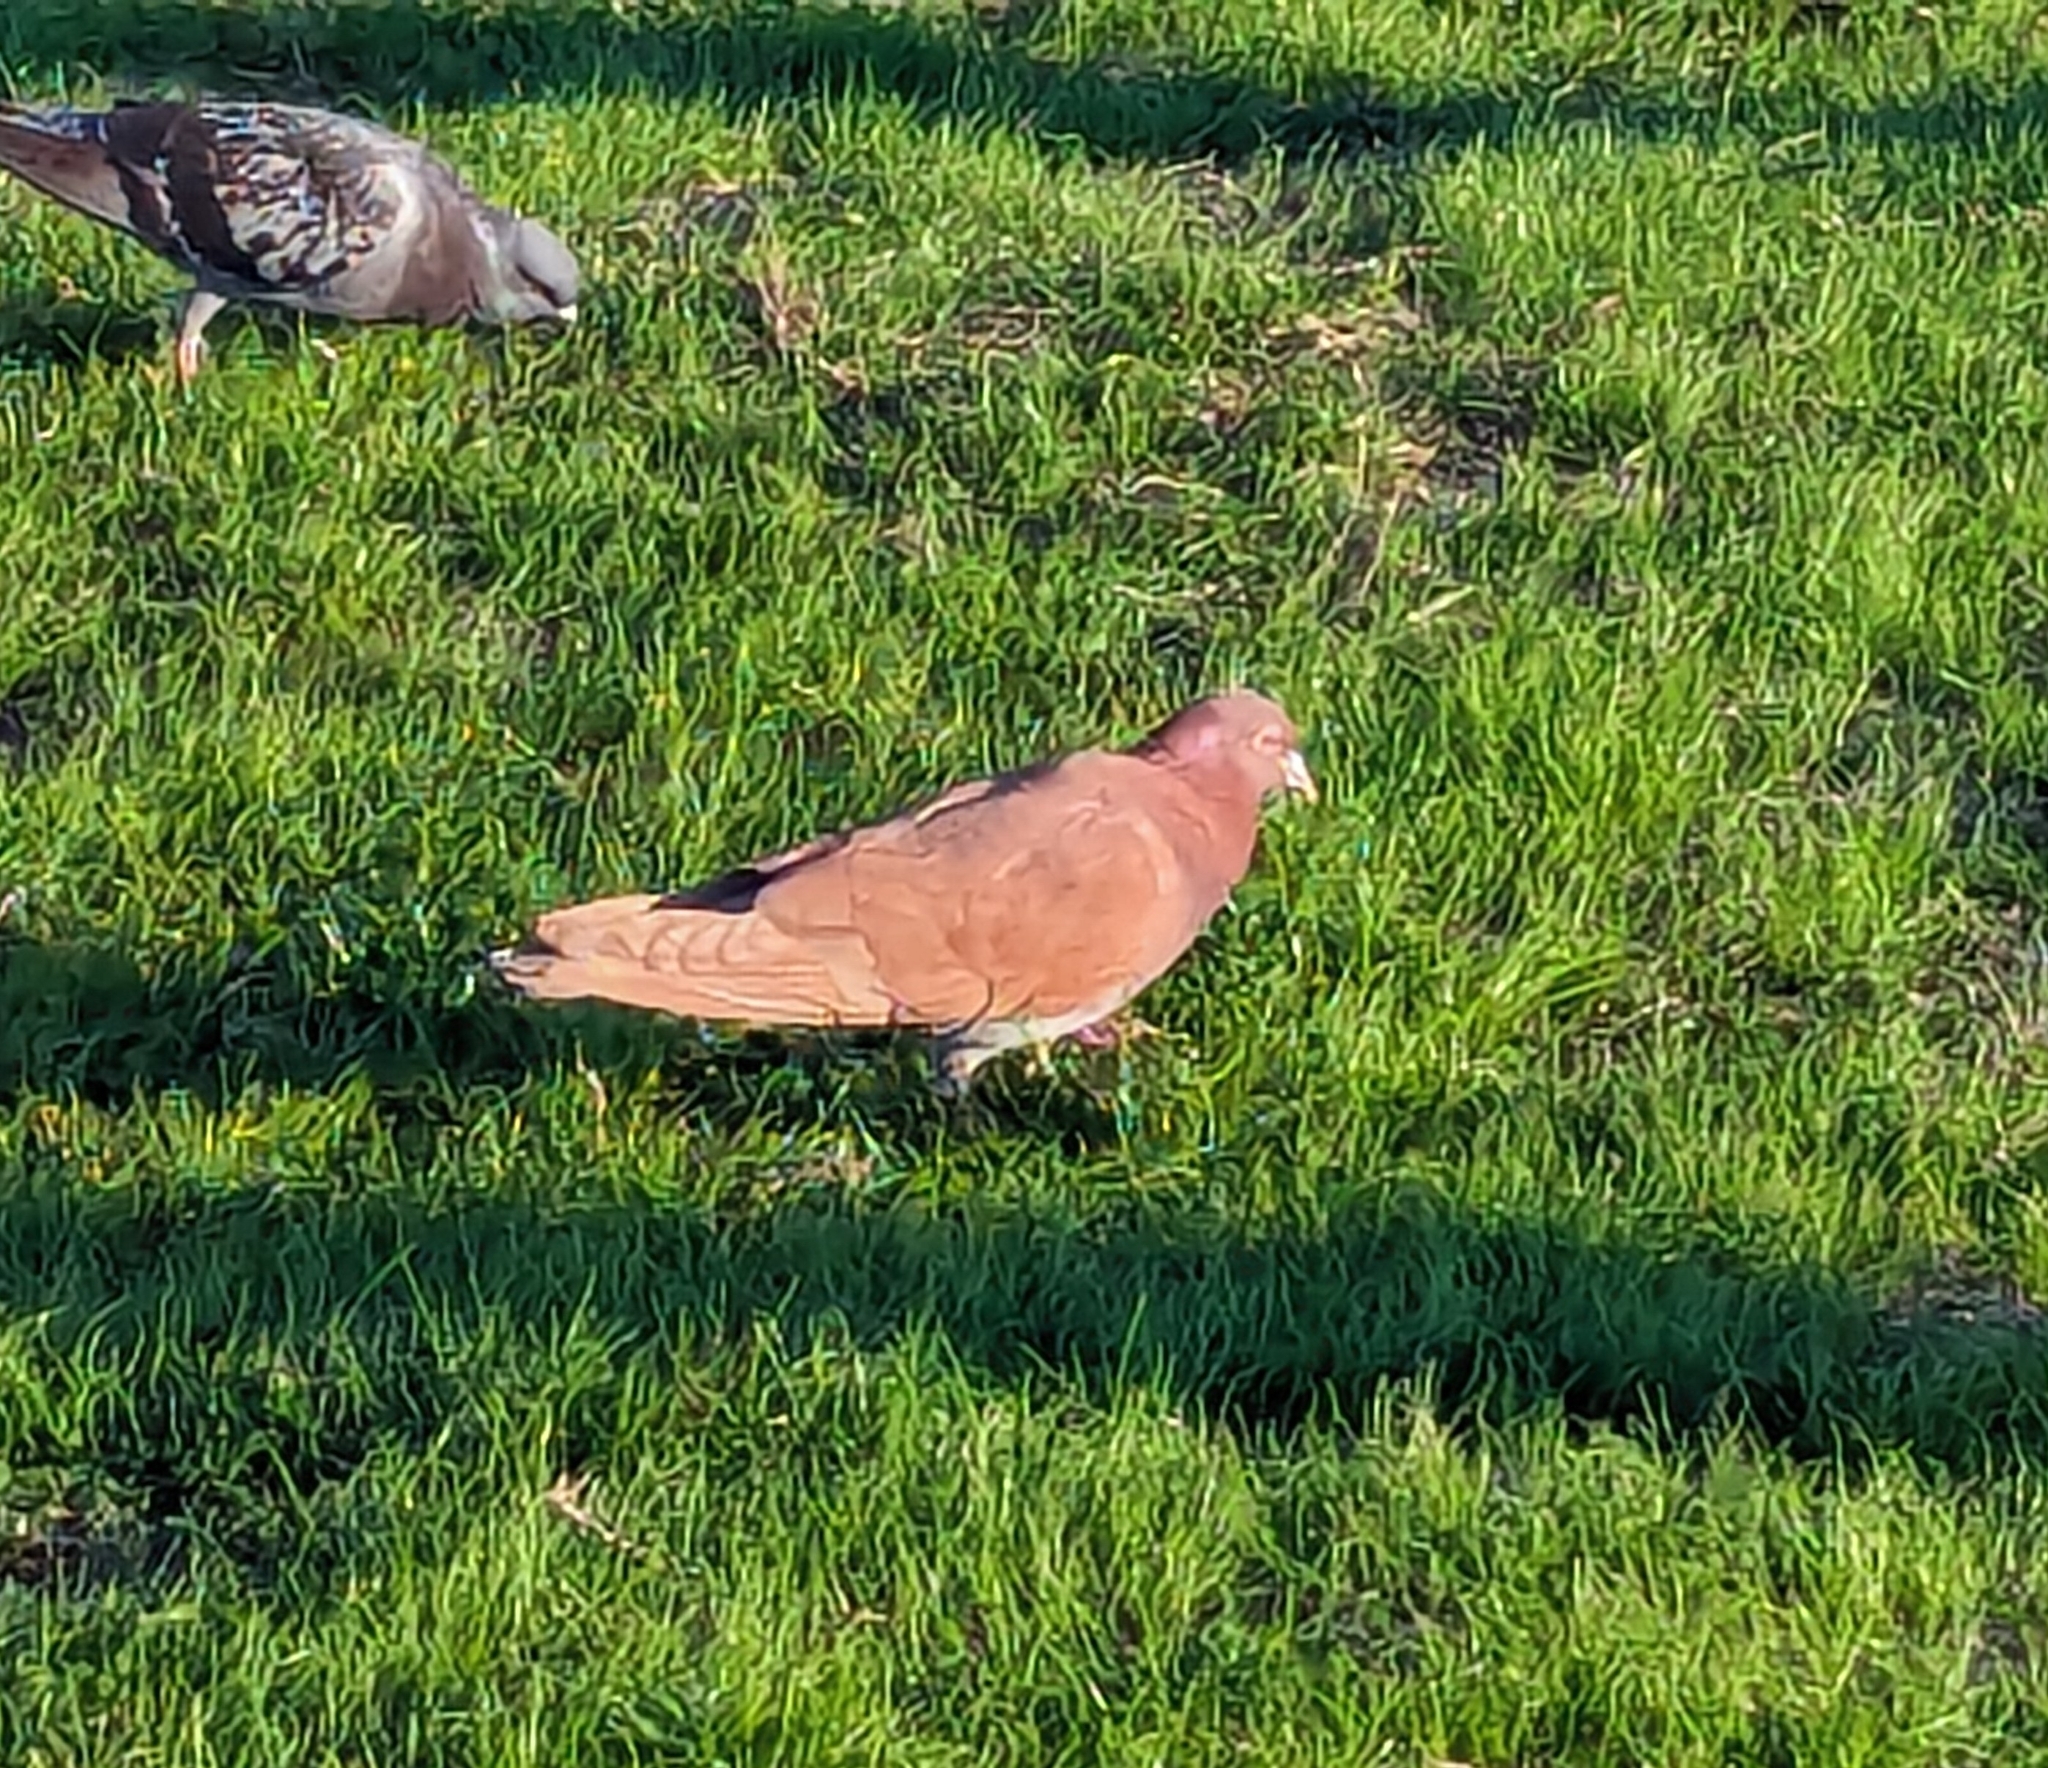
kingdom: Animalia
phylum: Chordata
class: Aves
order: Columbiformes
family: Columbidae
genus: Columba
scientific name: Columba livia
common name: Rock pigeon
